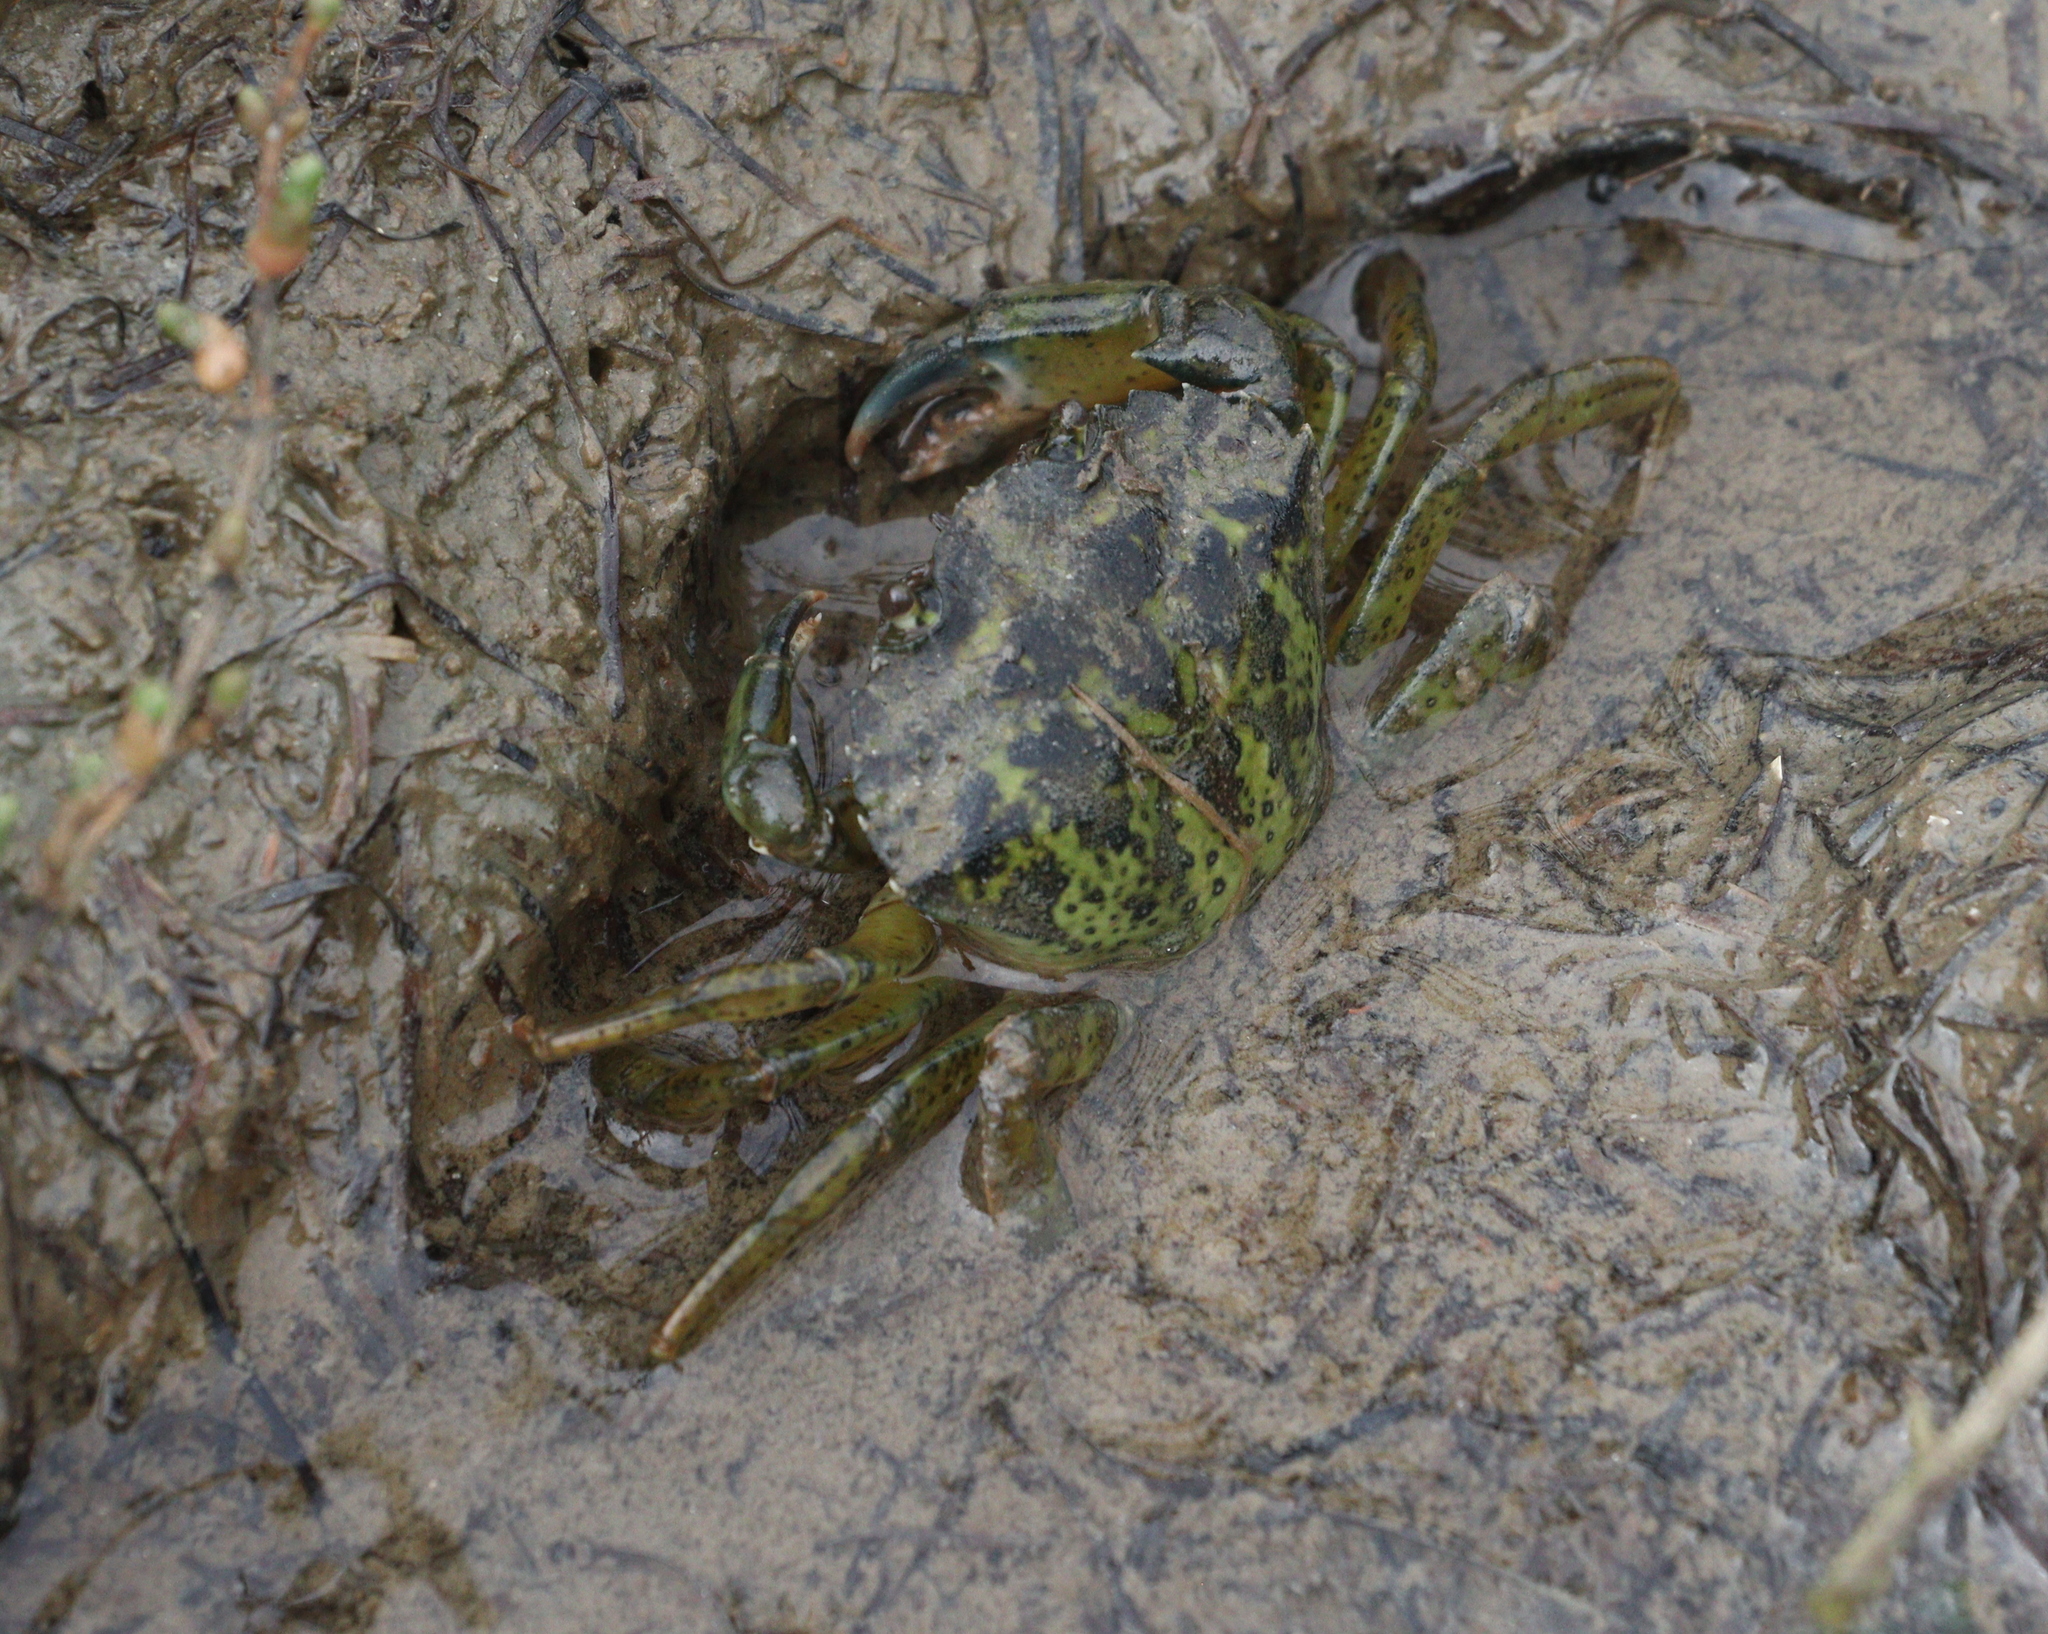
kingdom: Animalia
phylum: Arthropoda
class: Malacostraca
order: Decapoda
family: Carcinidae
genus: Carcinus
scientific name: Carcinus maenas
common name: European green crab
